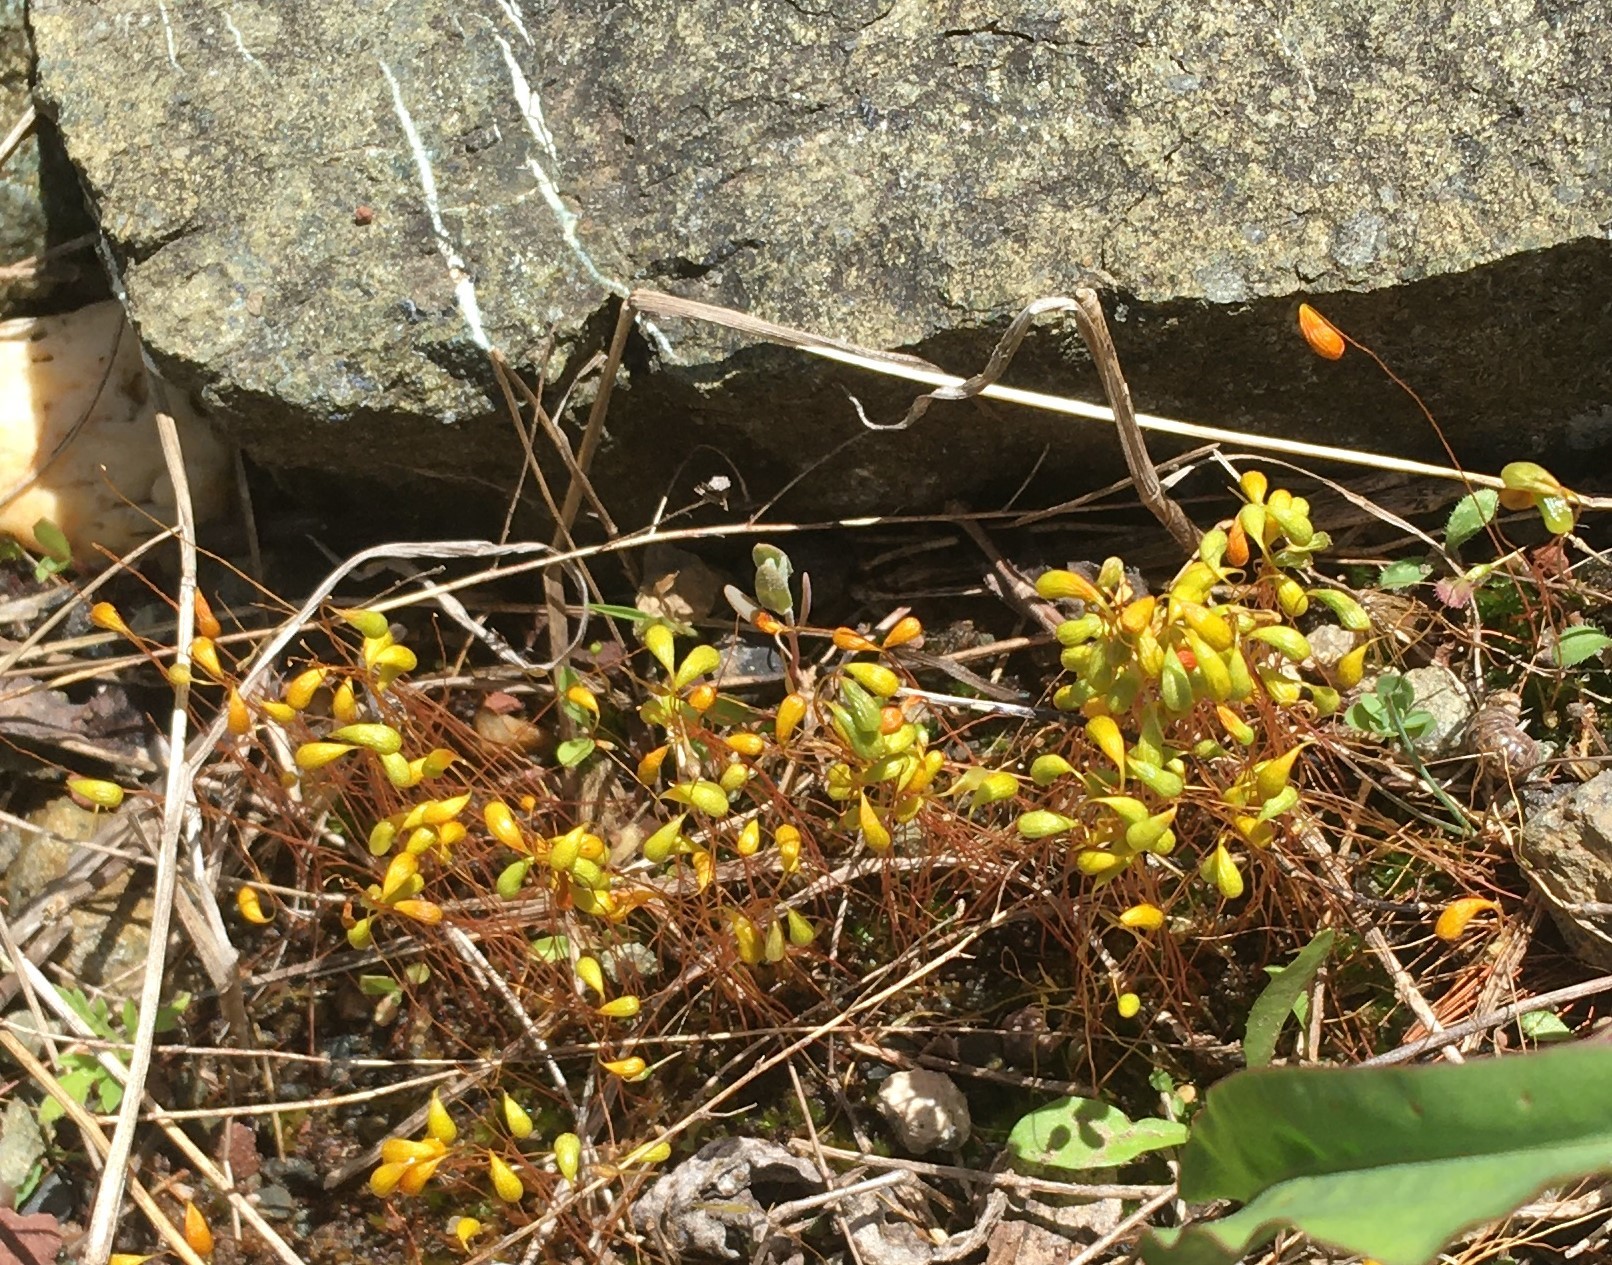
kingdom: Plantae
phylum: Bryophyta
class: Bryopsida
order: Funariales
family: Funariaceae
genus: Funaria
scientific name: Funaria hygrometrica
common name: Common cord moss
